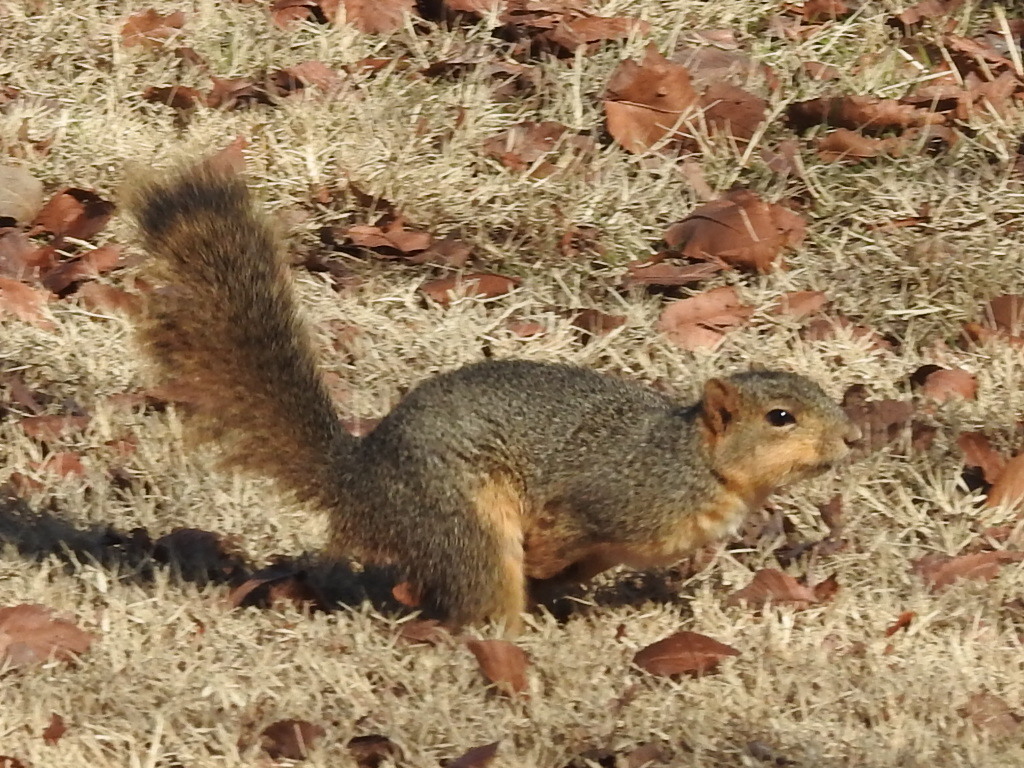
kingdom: Animalia
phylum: Chordata
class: Mammalia
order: Rodentia
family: Sciuridae
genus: Sciurus
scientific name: Sciurus niger
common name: Fox squirrel
